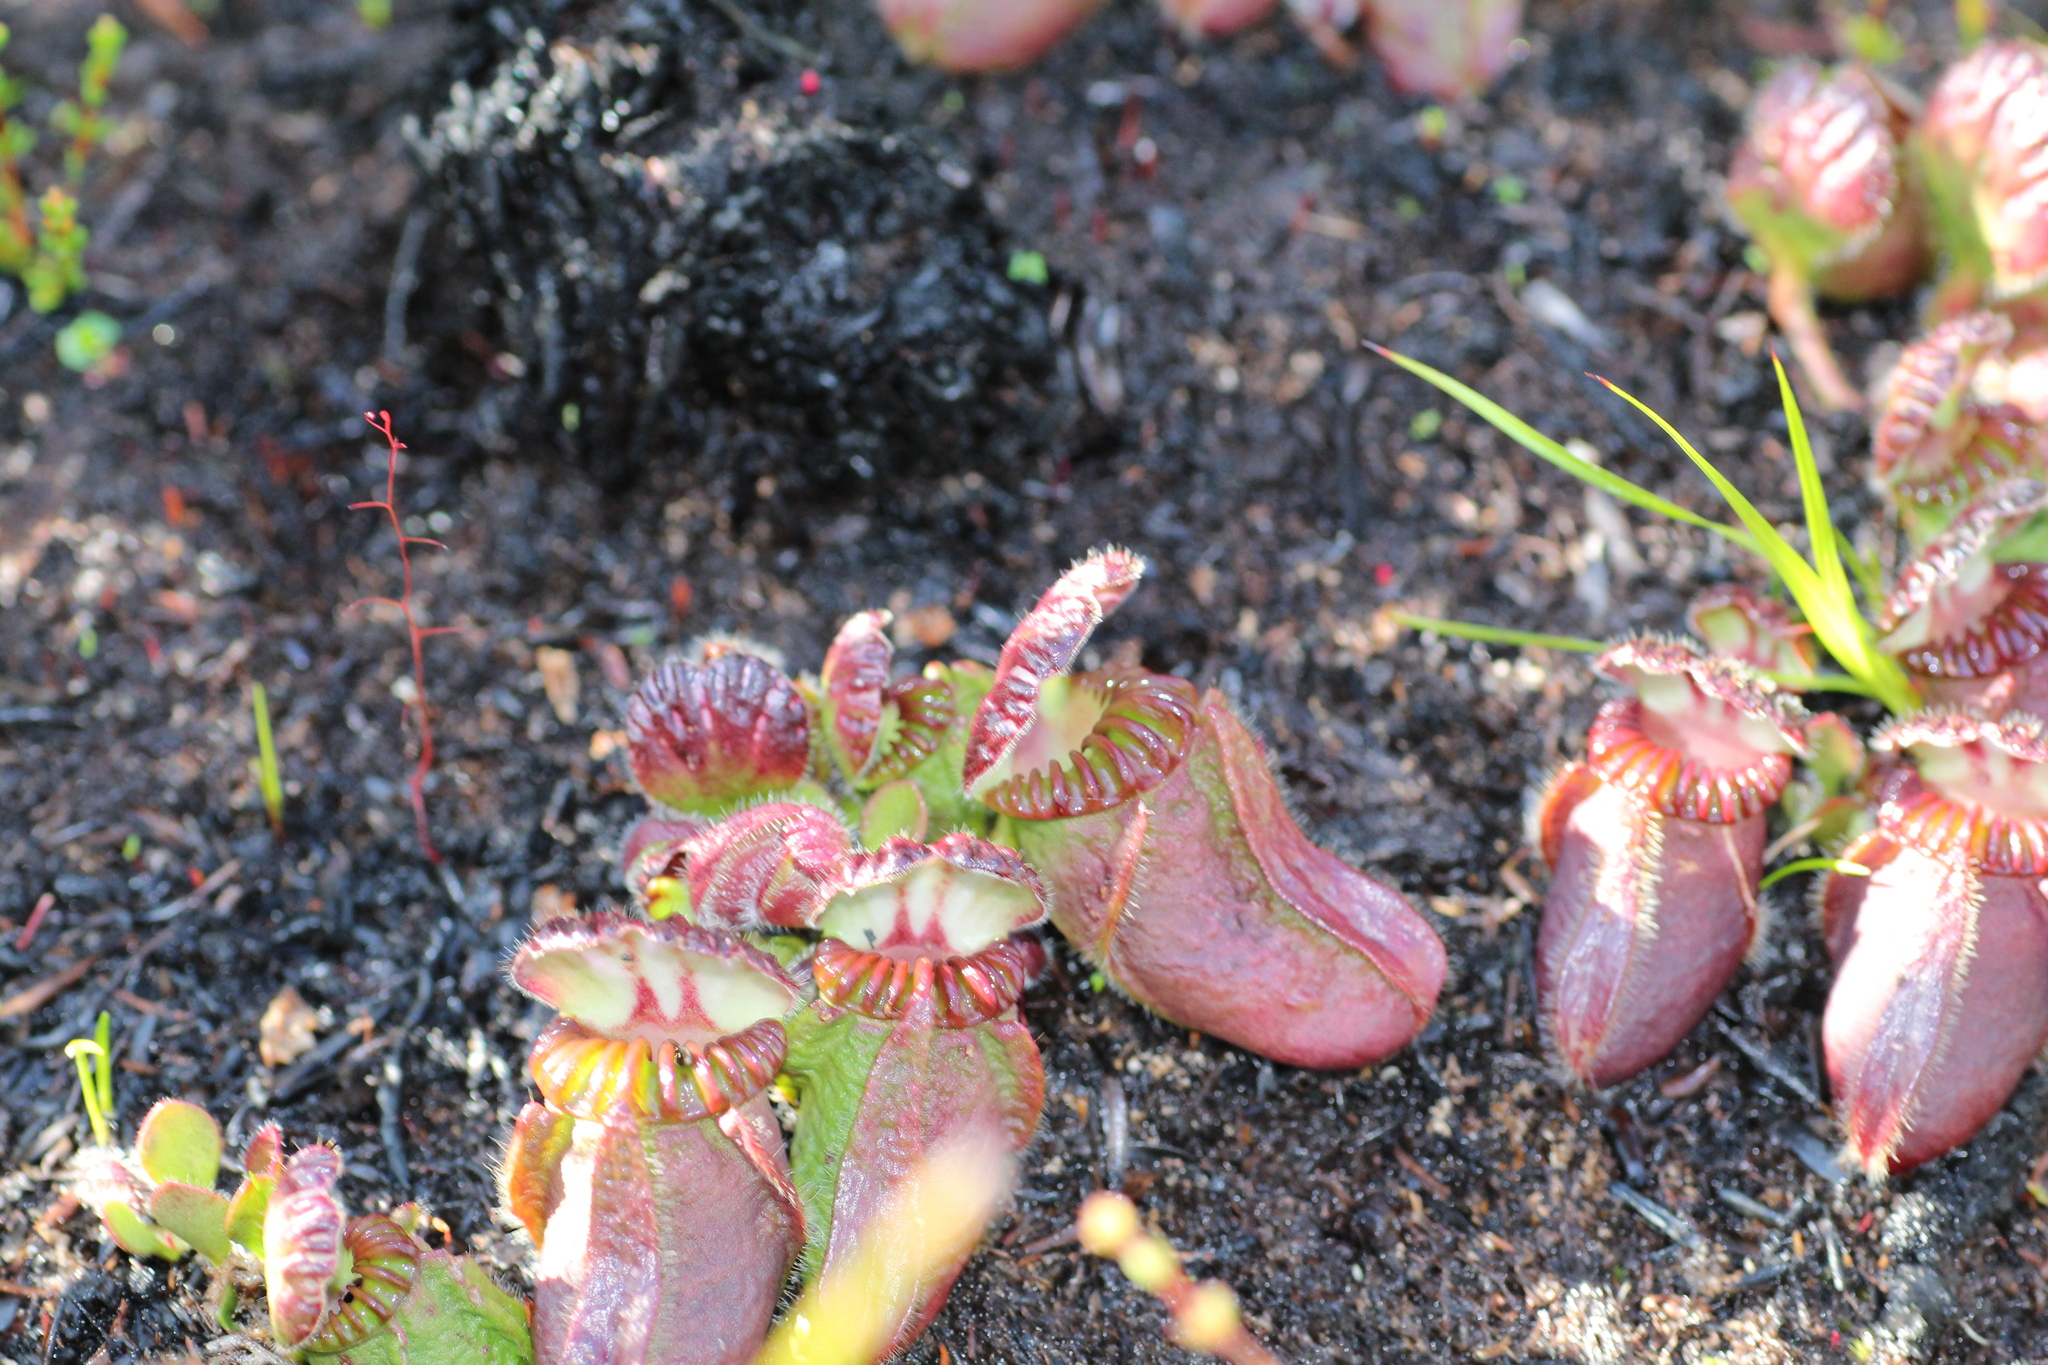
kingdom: Plantae
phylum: Tracheophyta
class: Magnoliopsida
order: Oxalidales
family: Cephalotaceae
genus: Cephalotus
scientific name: Cephalotus follicularis
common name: Australian pitcher plant
